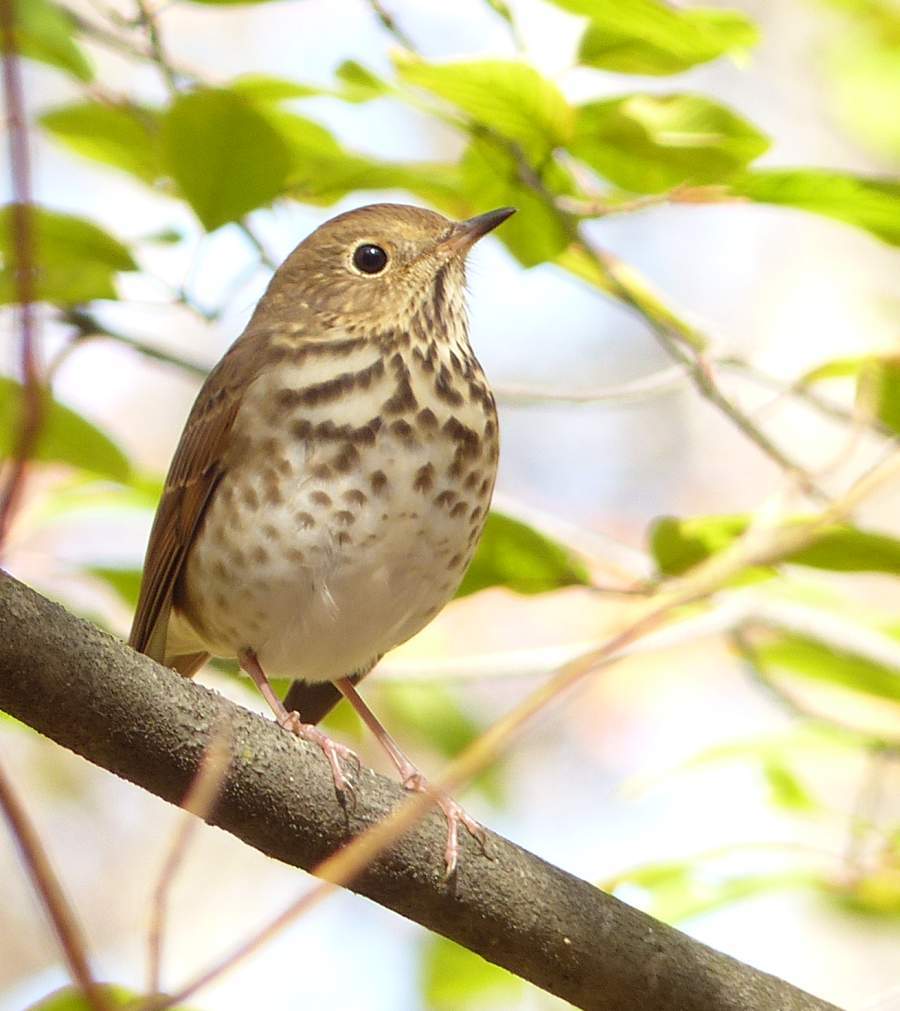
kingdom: Animalia
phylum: Chordata
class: Aves
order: Passeriformes
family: Turdidae
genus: Catharus
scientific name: Catharus guttatus
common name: Hermit thrush
